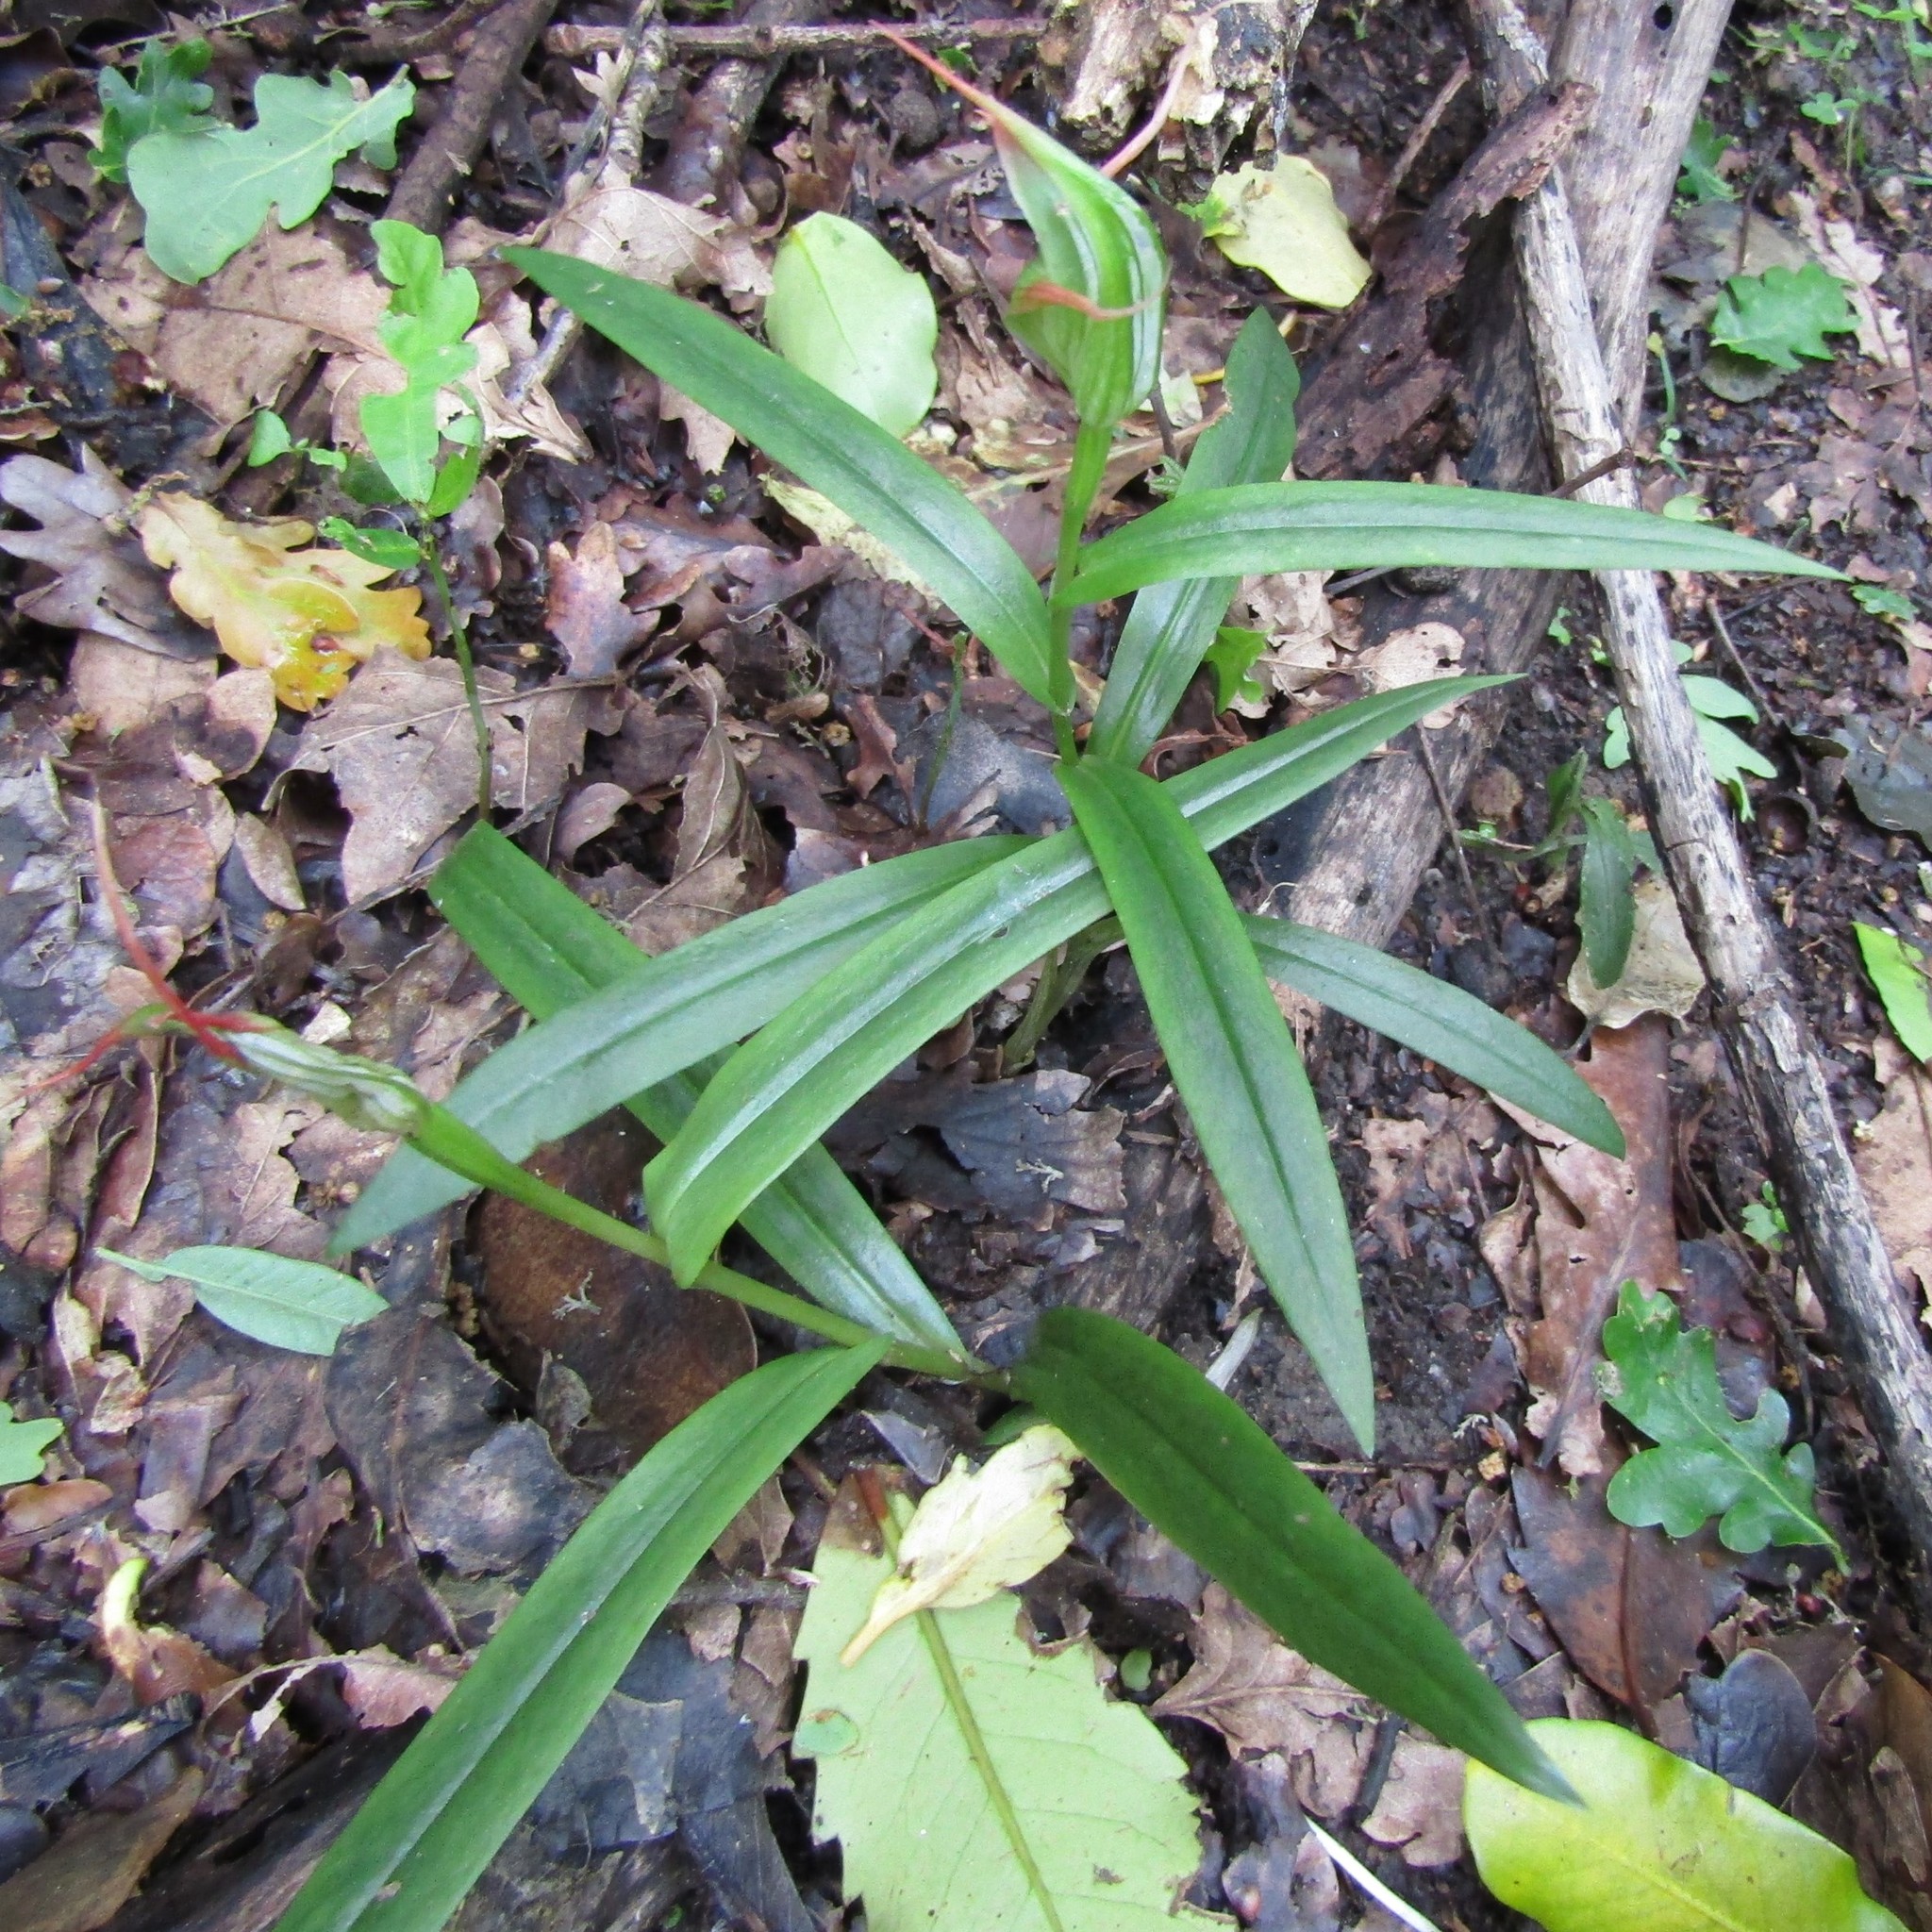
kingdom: Plantae
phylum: Tracheophyta
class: Liliopsida
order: Asparagales
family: Orchidaceae
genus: Pterostylis
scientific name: Pterostylis banksii
